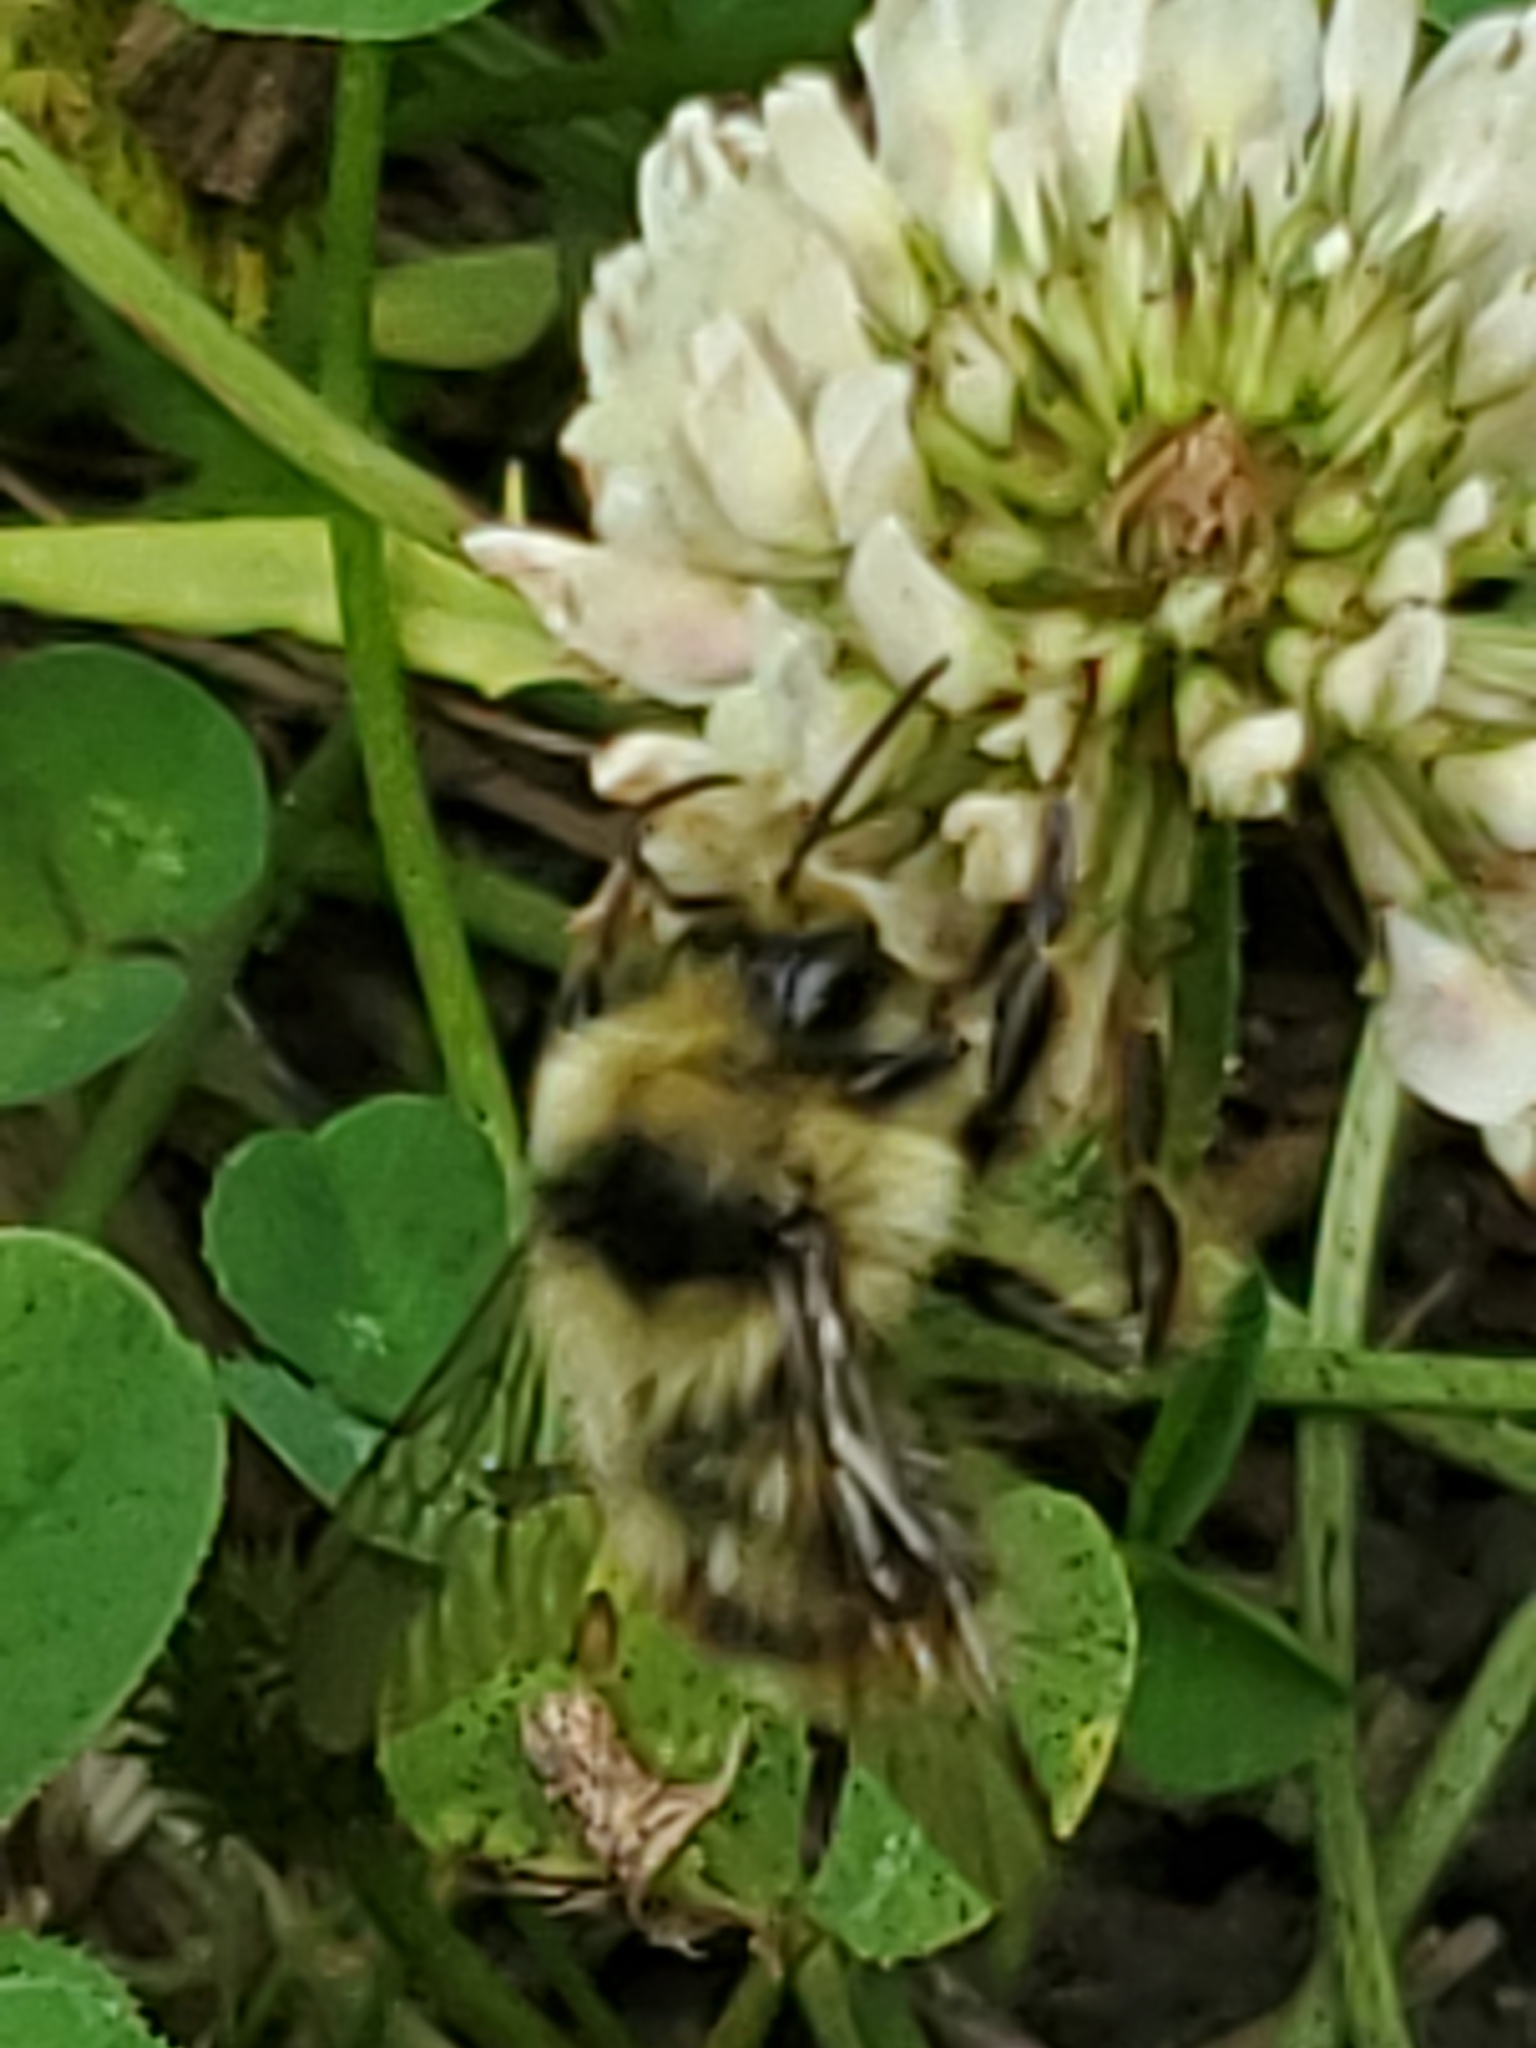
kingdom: Animalia
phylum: Arthropoda
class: Insecta
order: Hymenoptera
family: Apidae
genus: Bombus
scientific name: Bombus mixtus
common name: Fuzzy-horned bumble bee
